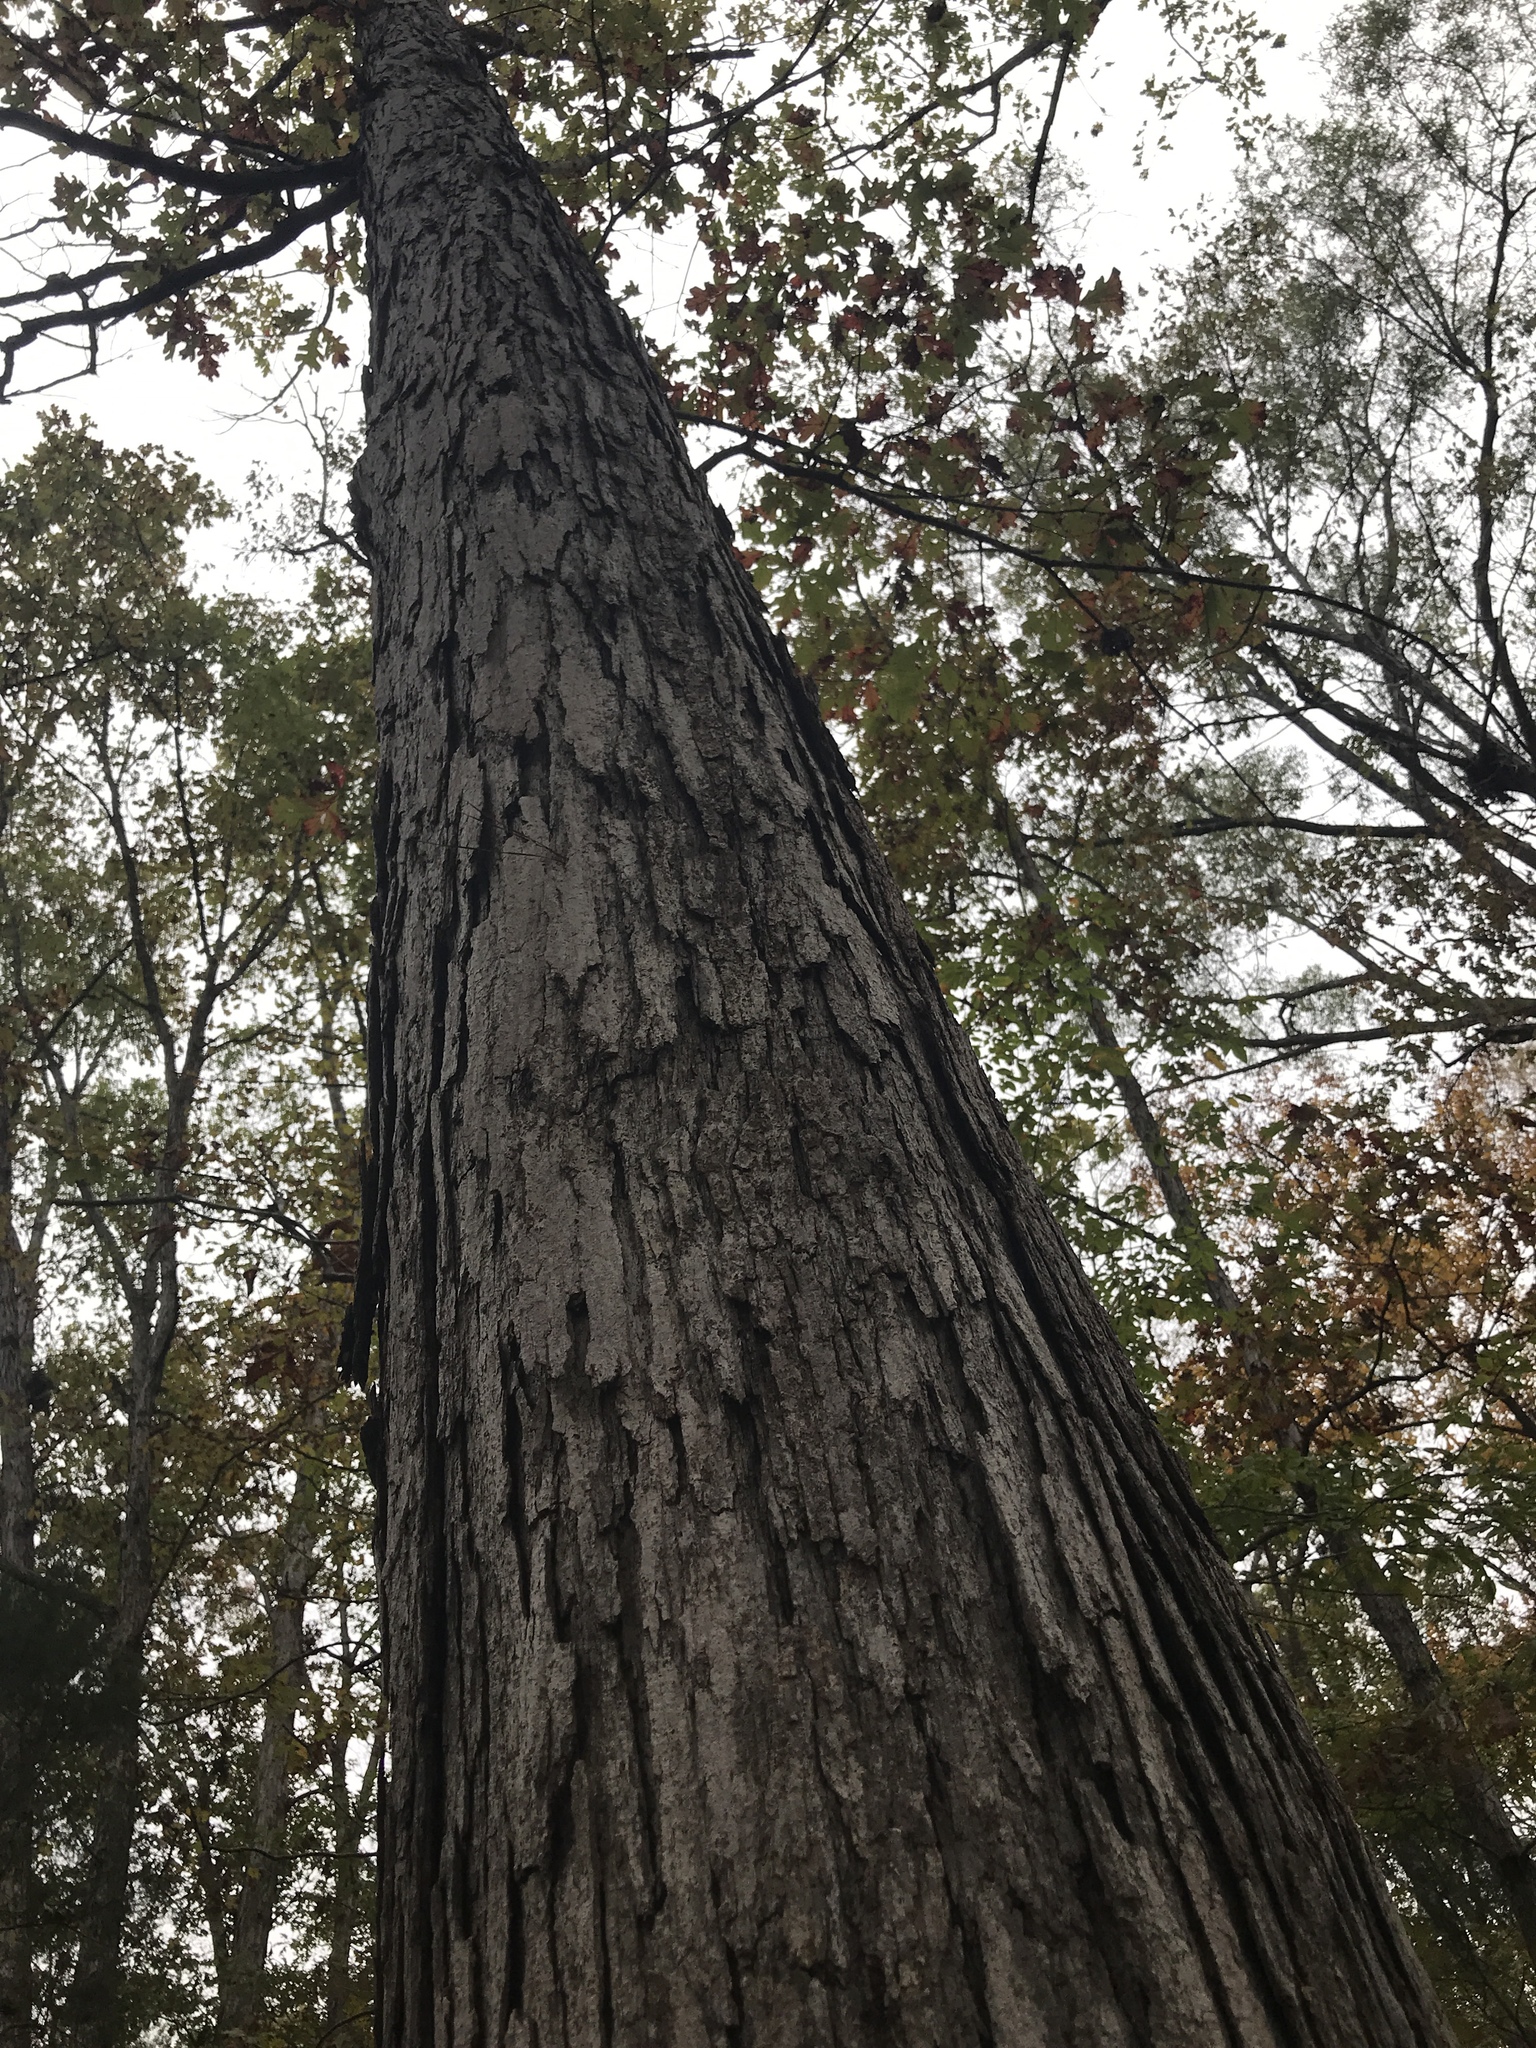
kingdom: Plantae
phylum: Tracheophyta
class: Magnoliopsida
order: Fagales
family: Fagaceae
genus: Quercus
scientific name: Quercus alba
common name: White oak
